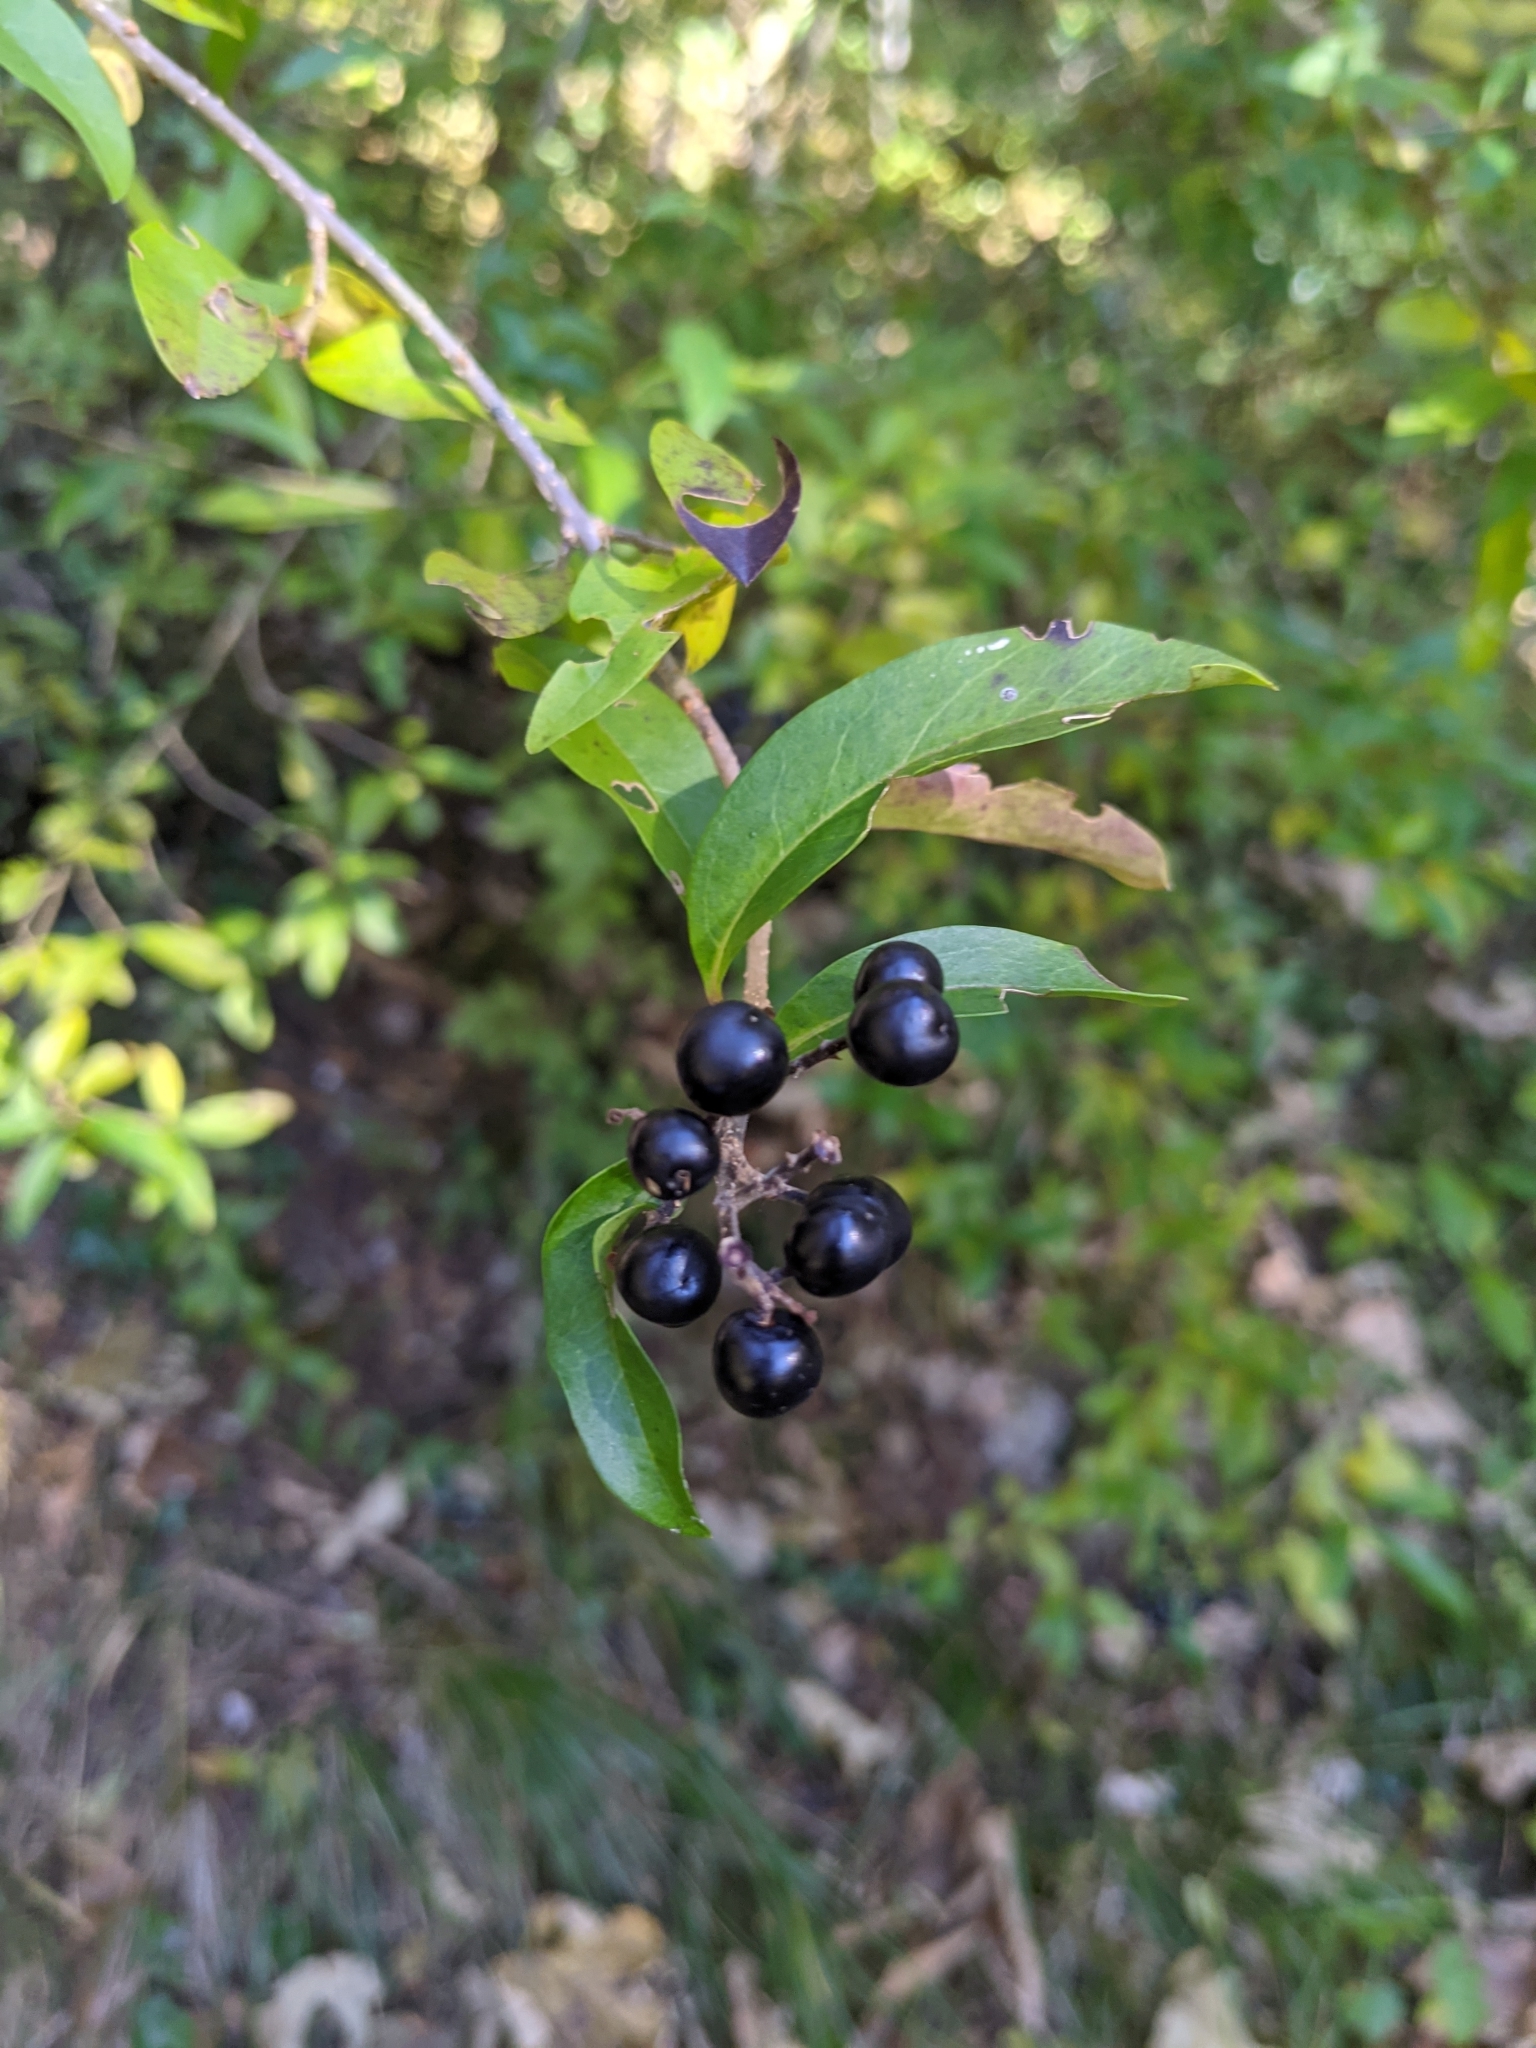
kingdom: Plantae
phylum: Tracheophyta
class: Magnoliopsida
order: Lamiales
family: Oleaceae
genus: Ligustrum
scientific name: Ligustrum vulgare
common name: Wild privet
